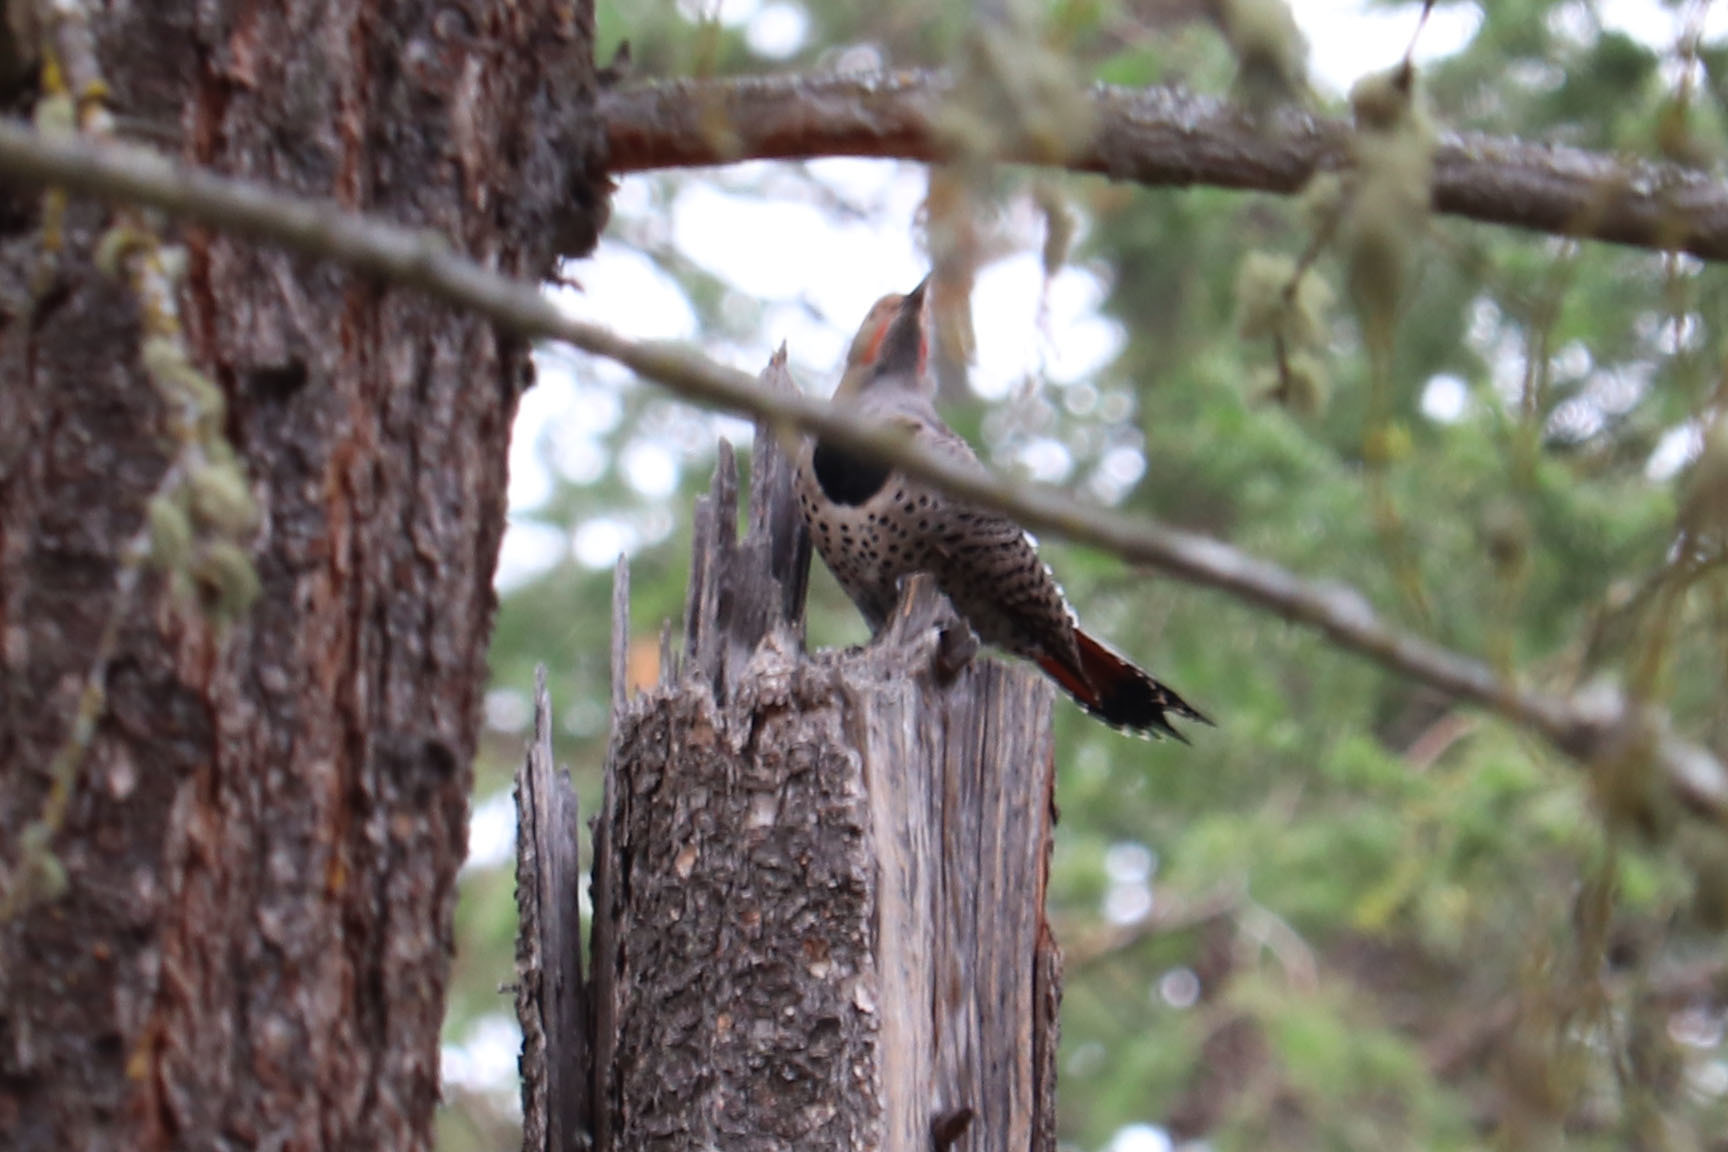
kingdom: Animalia
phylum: Chordata
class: Aves
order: Piciformes
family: Picidae
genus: Colaptes
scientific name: Colaptes auratus
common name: Northern flicker
